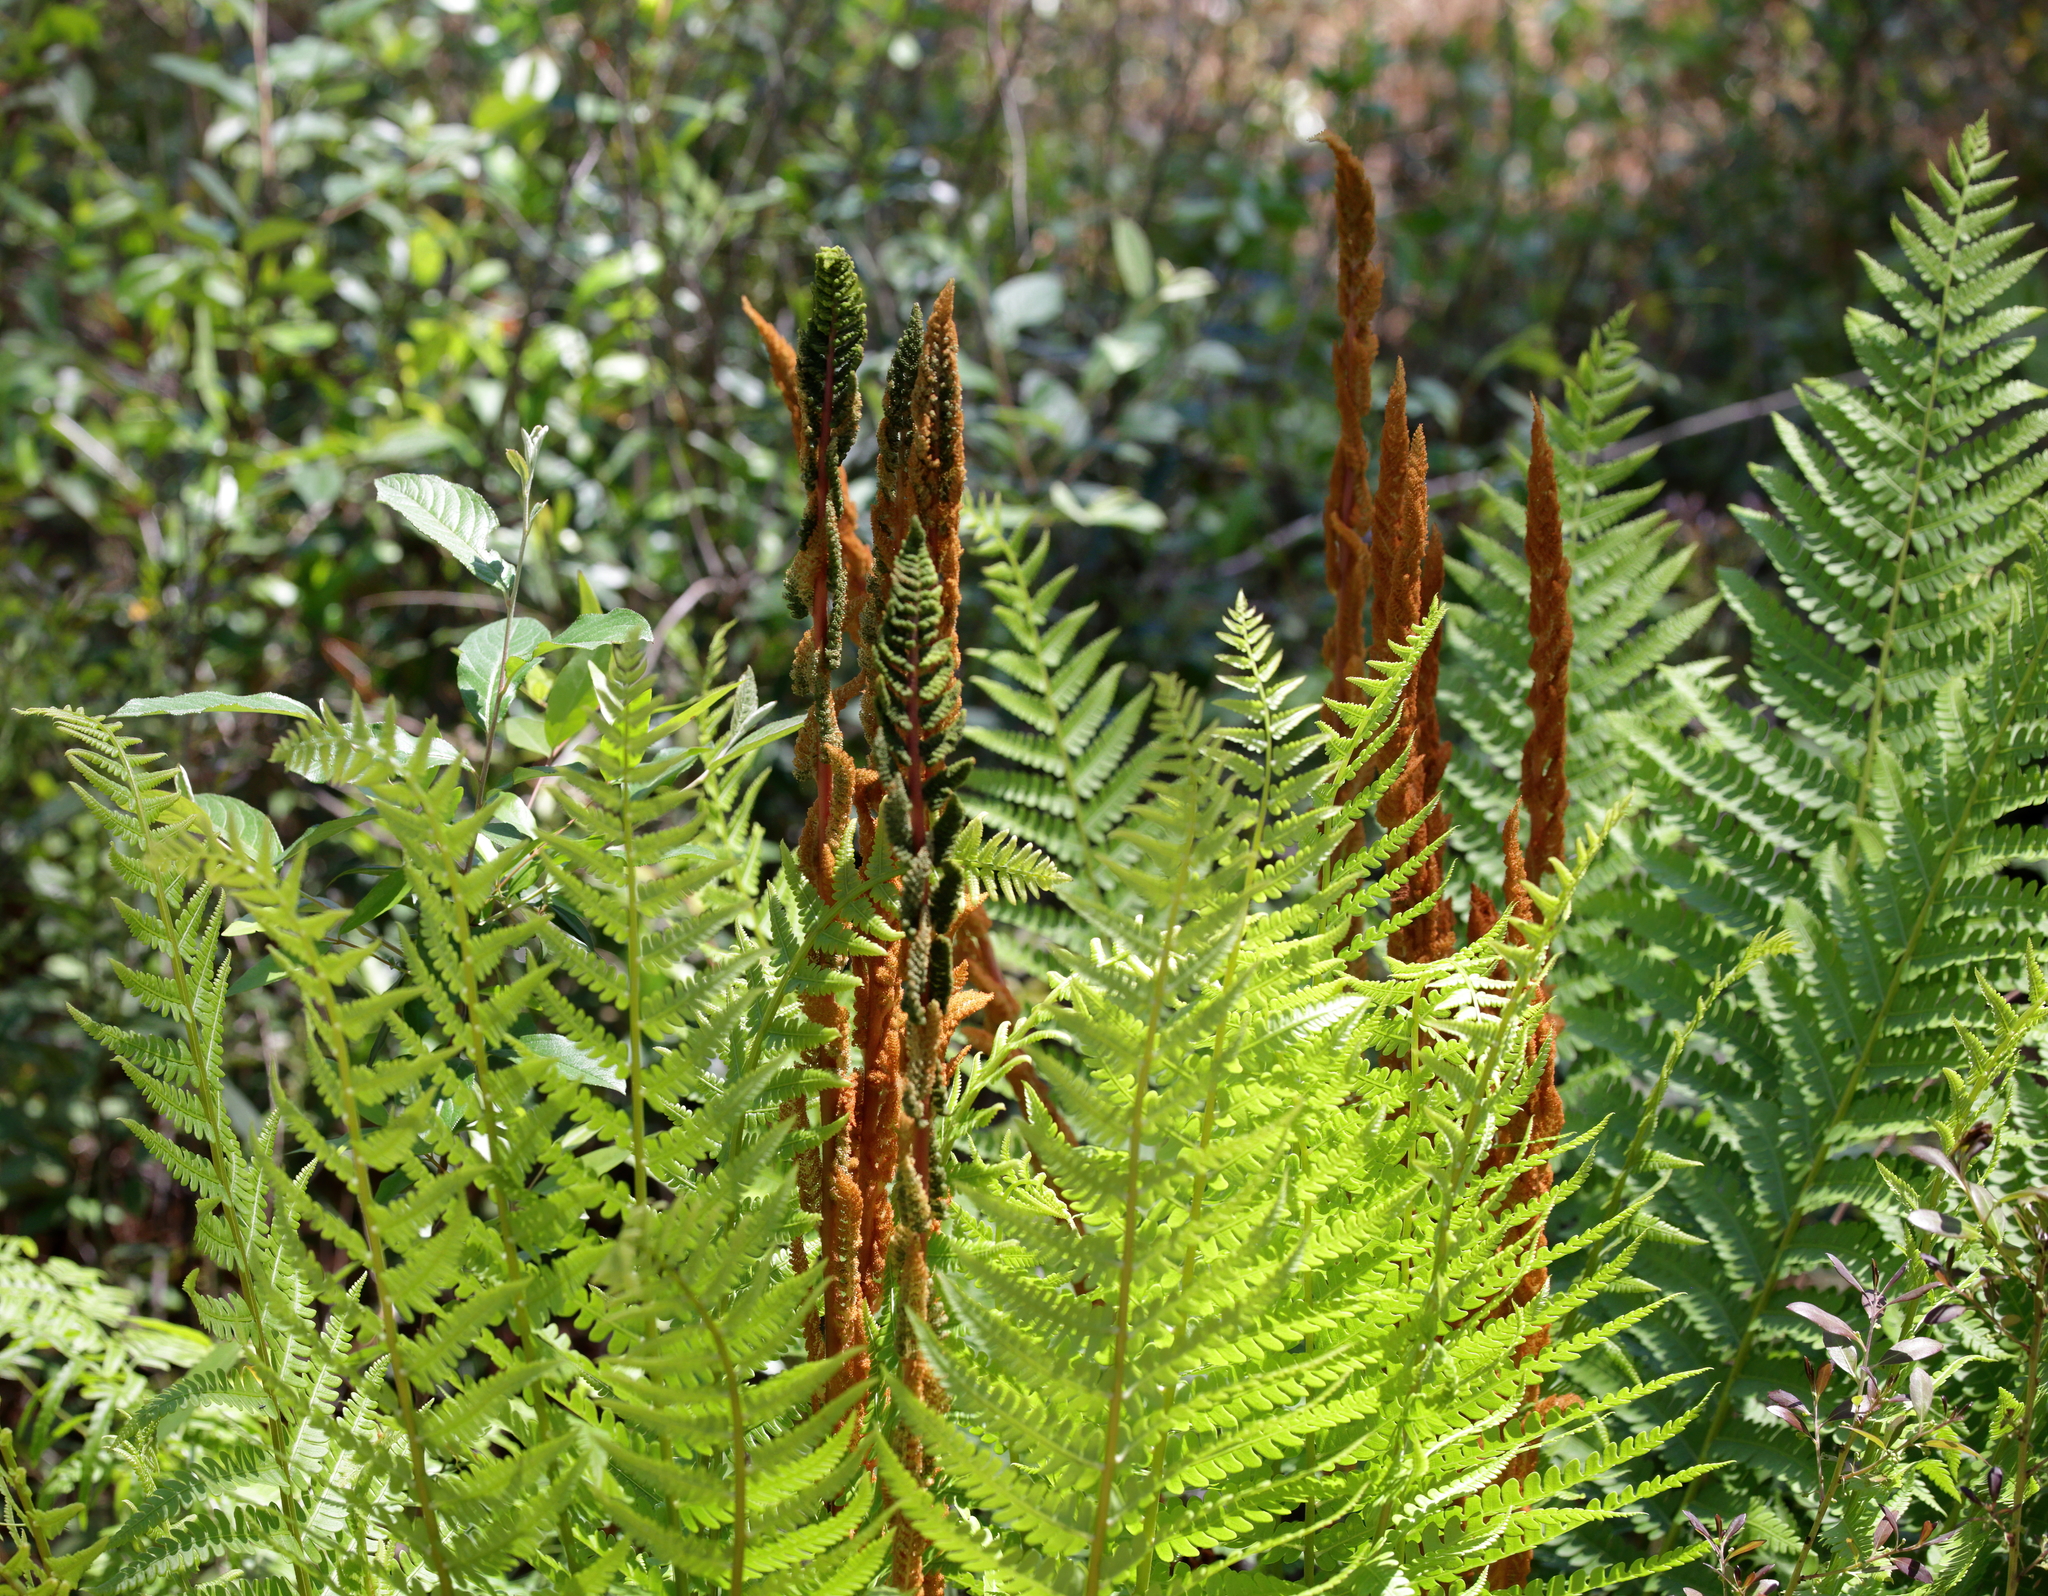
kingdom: Plantae
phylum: Tracheophyta
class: Polypodiopsida
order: Osmundales
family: Osmundaceae
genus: Osmundastrum
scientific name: Osmundastrum cinnamomeum
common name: Cinnamon fern
